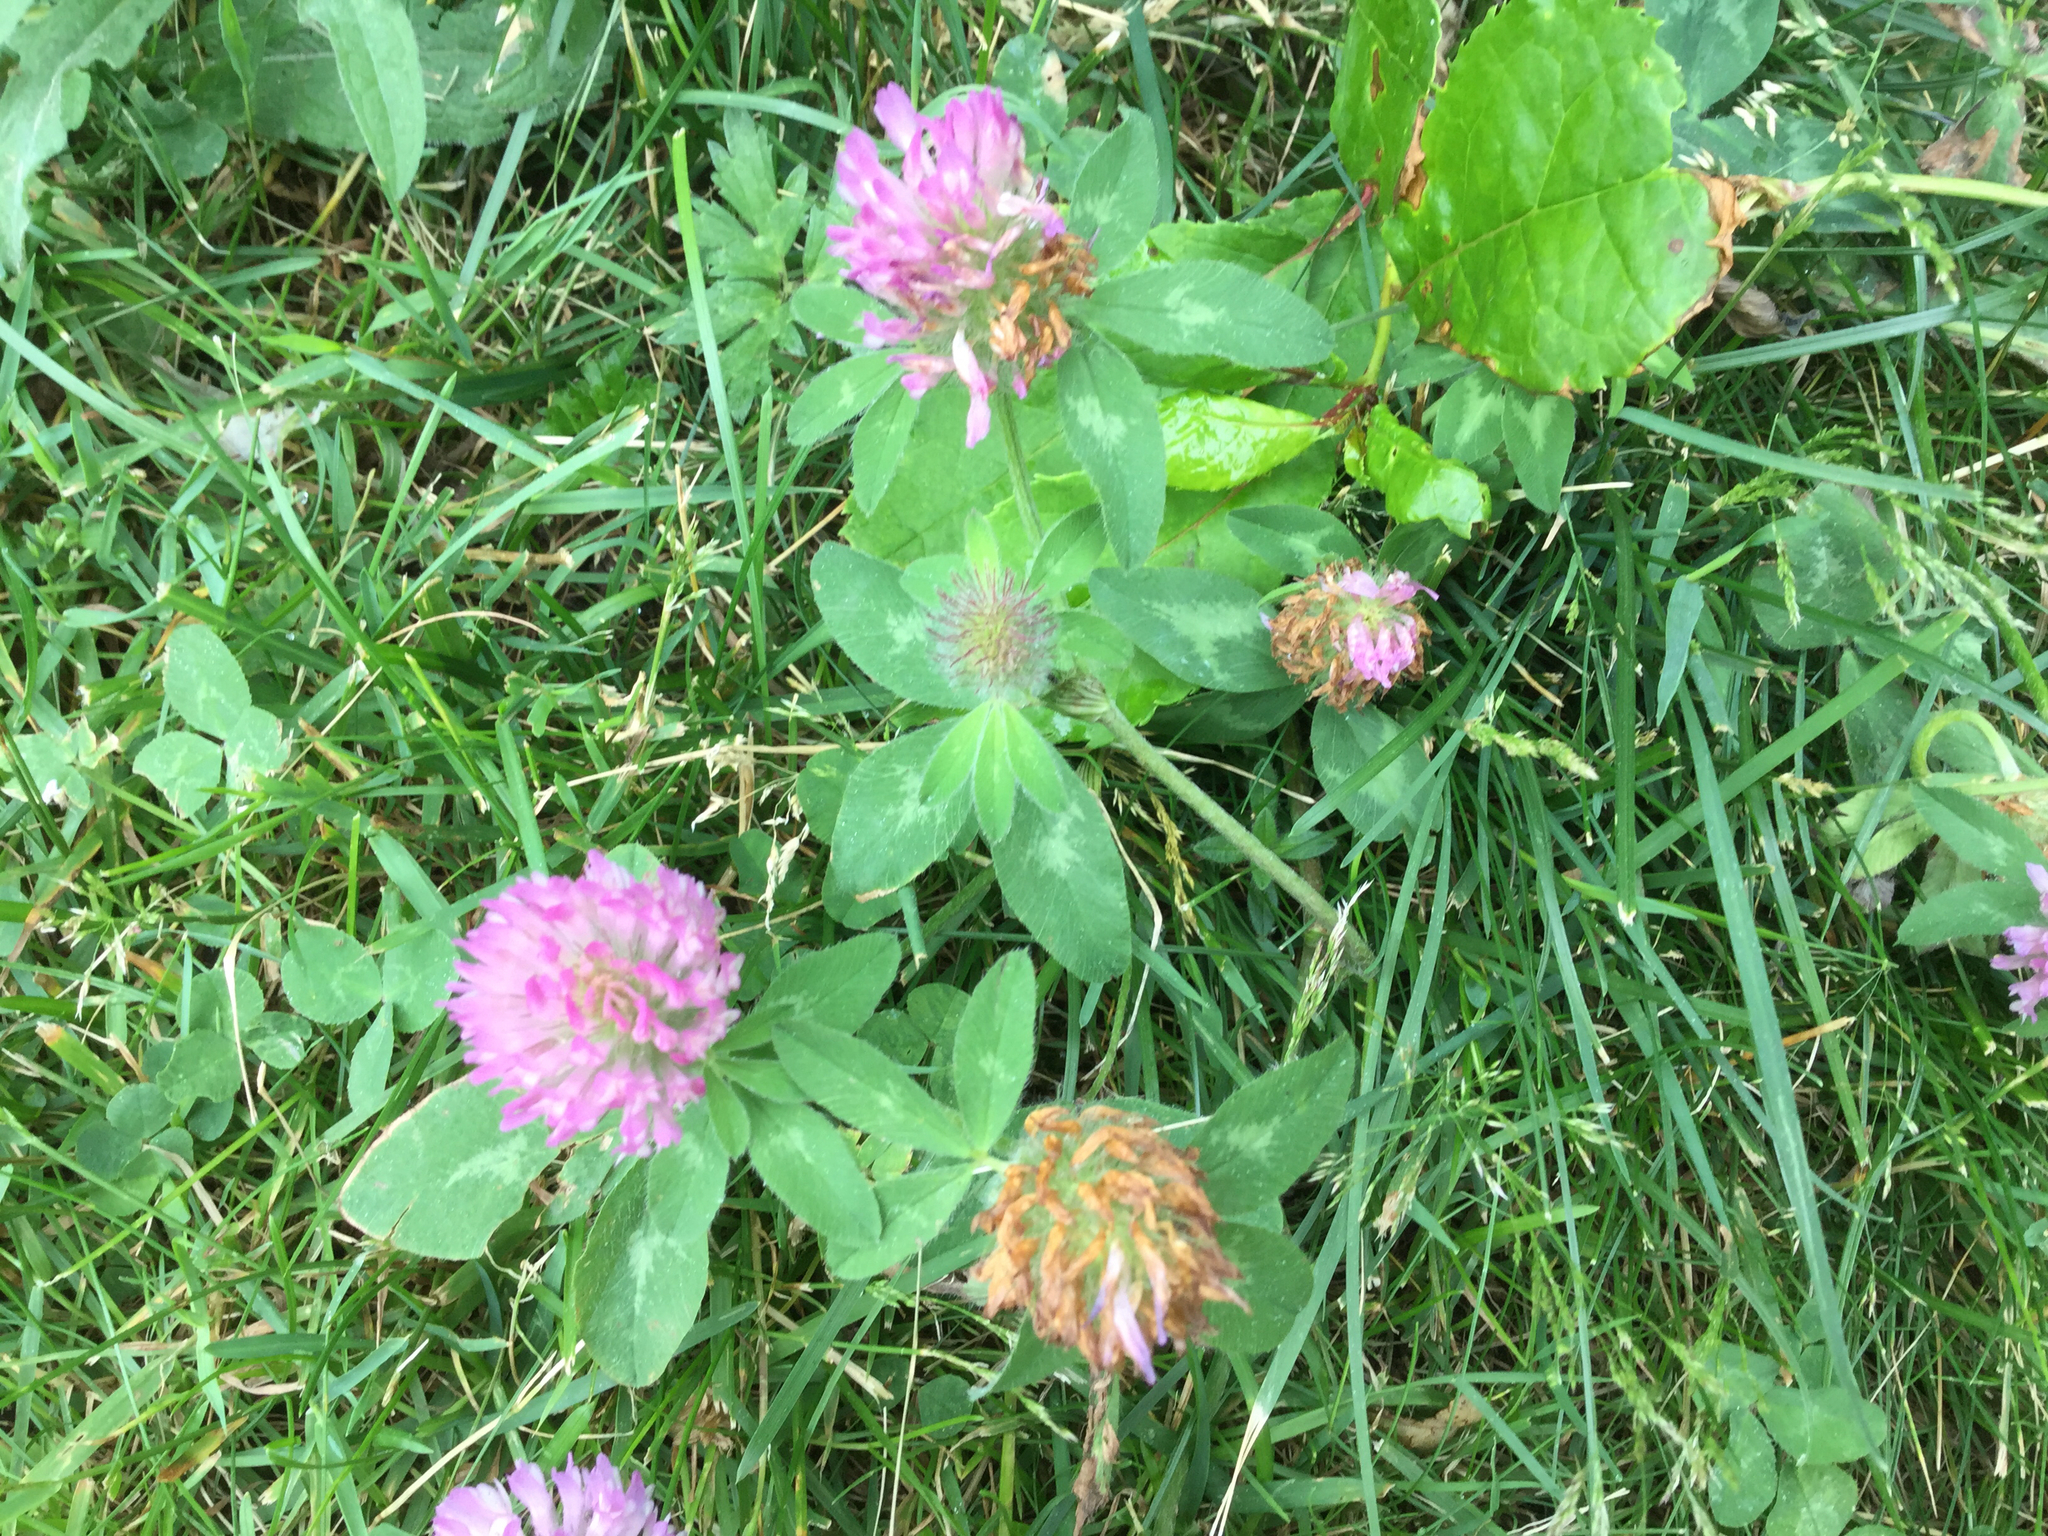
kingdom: Plantae
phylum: Tracheophyta
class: Magnoliopsida
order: Fabales
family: Fabaceae
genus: Trifolium
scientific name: Trifolium pratense
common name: Red clover
